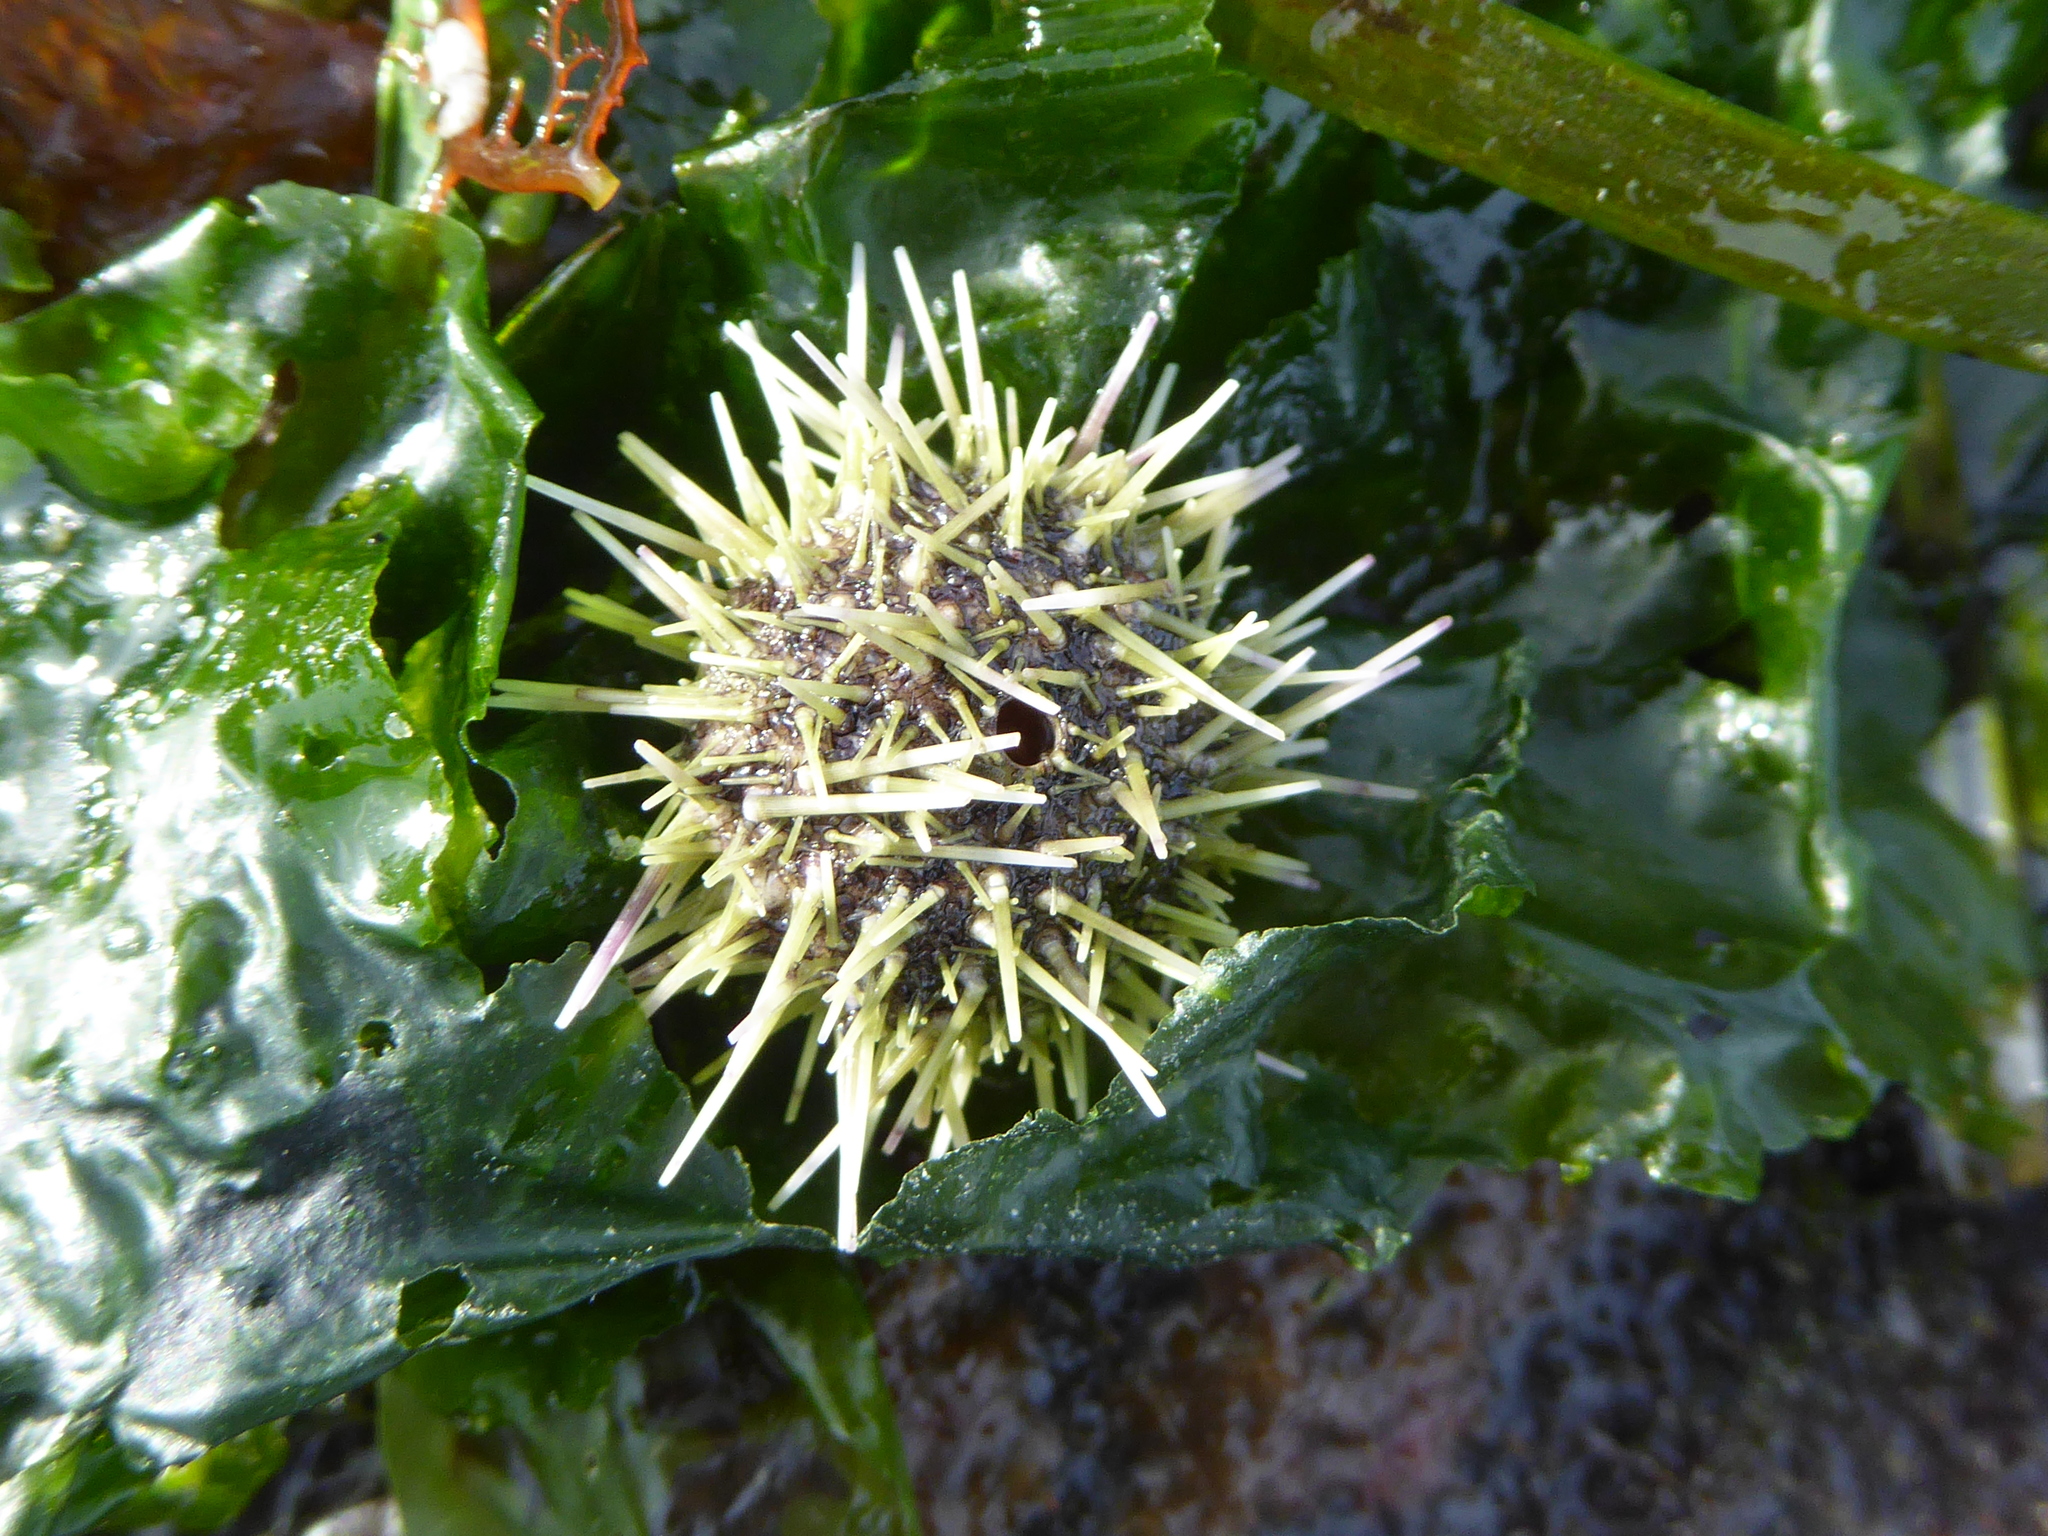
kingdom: Animalia
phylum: Echinodermata
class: Echinoidea
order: Camarodonta
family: Strongylocentrotidae
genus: Strongylocentrotus
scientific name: Strongylocentrotus droebachiensis
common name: Northern sea urchin
